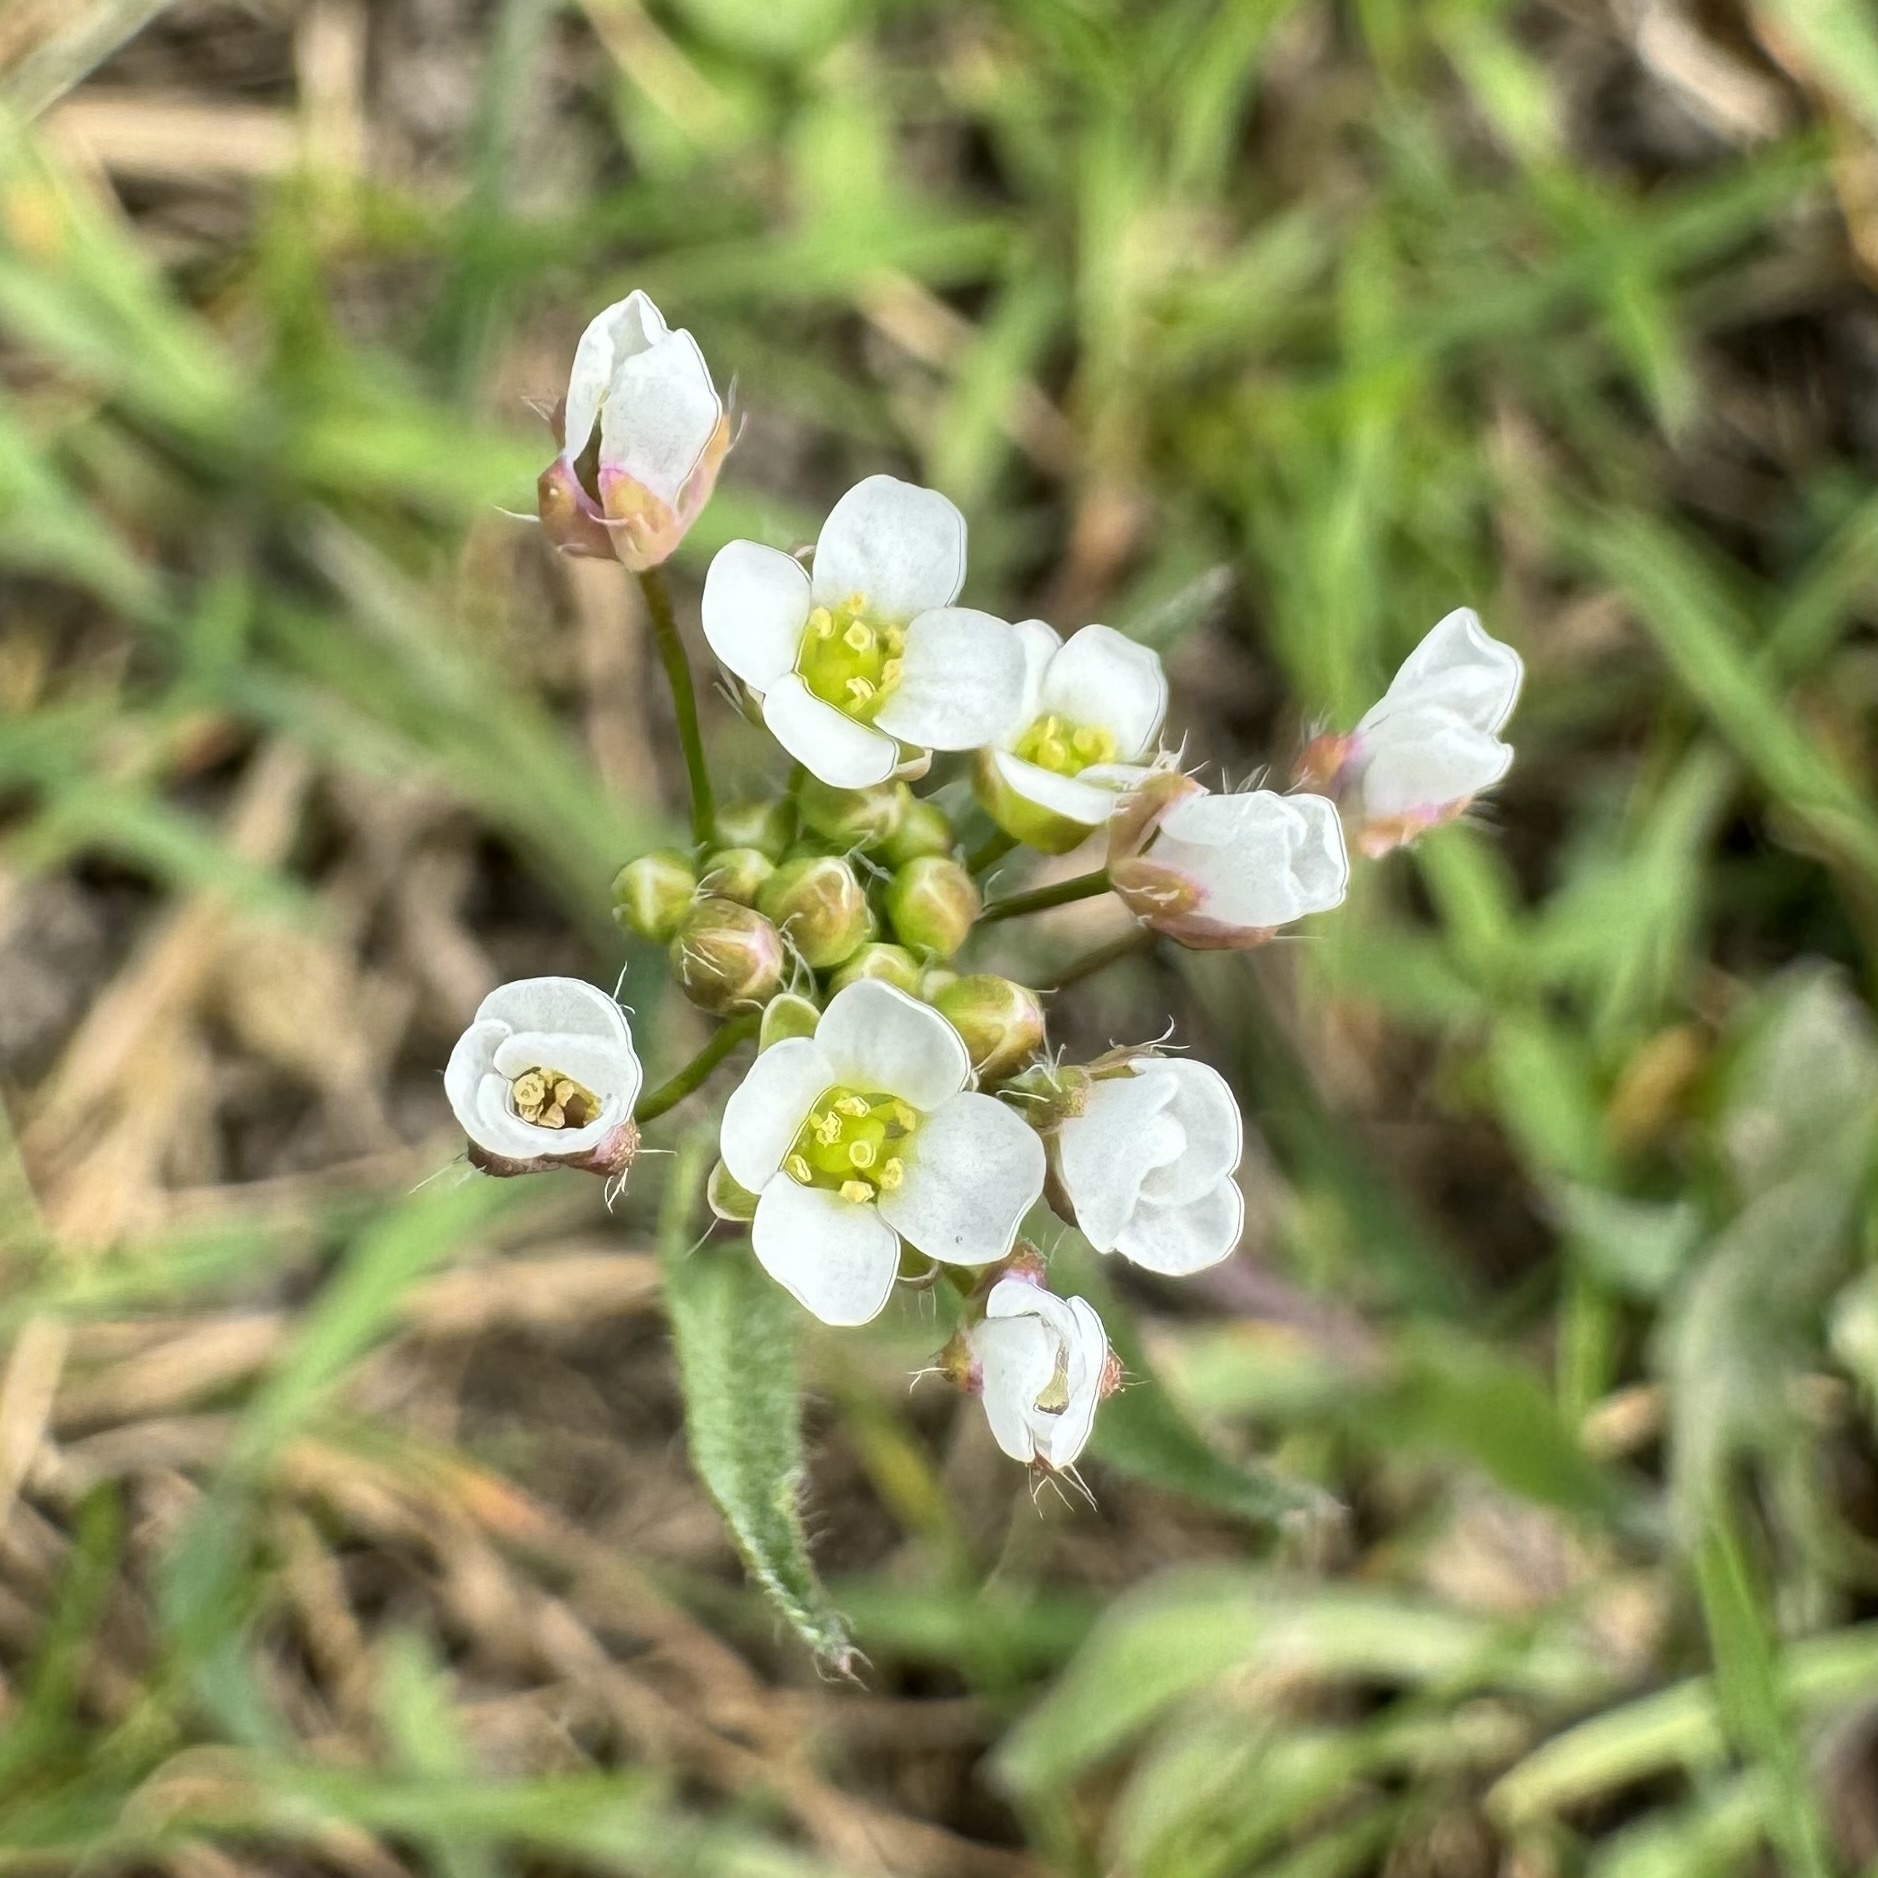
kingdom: Plantae
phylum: Tracheophyta
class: Magnoliopsida
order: Brassicales
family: Brassicaceae
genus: Capsella
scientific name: Capsella bursa-pastoris
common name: Shepherd's purse
